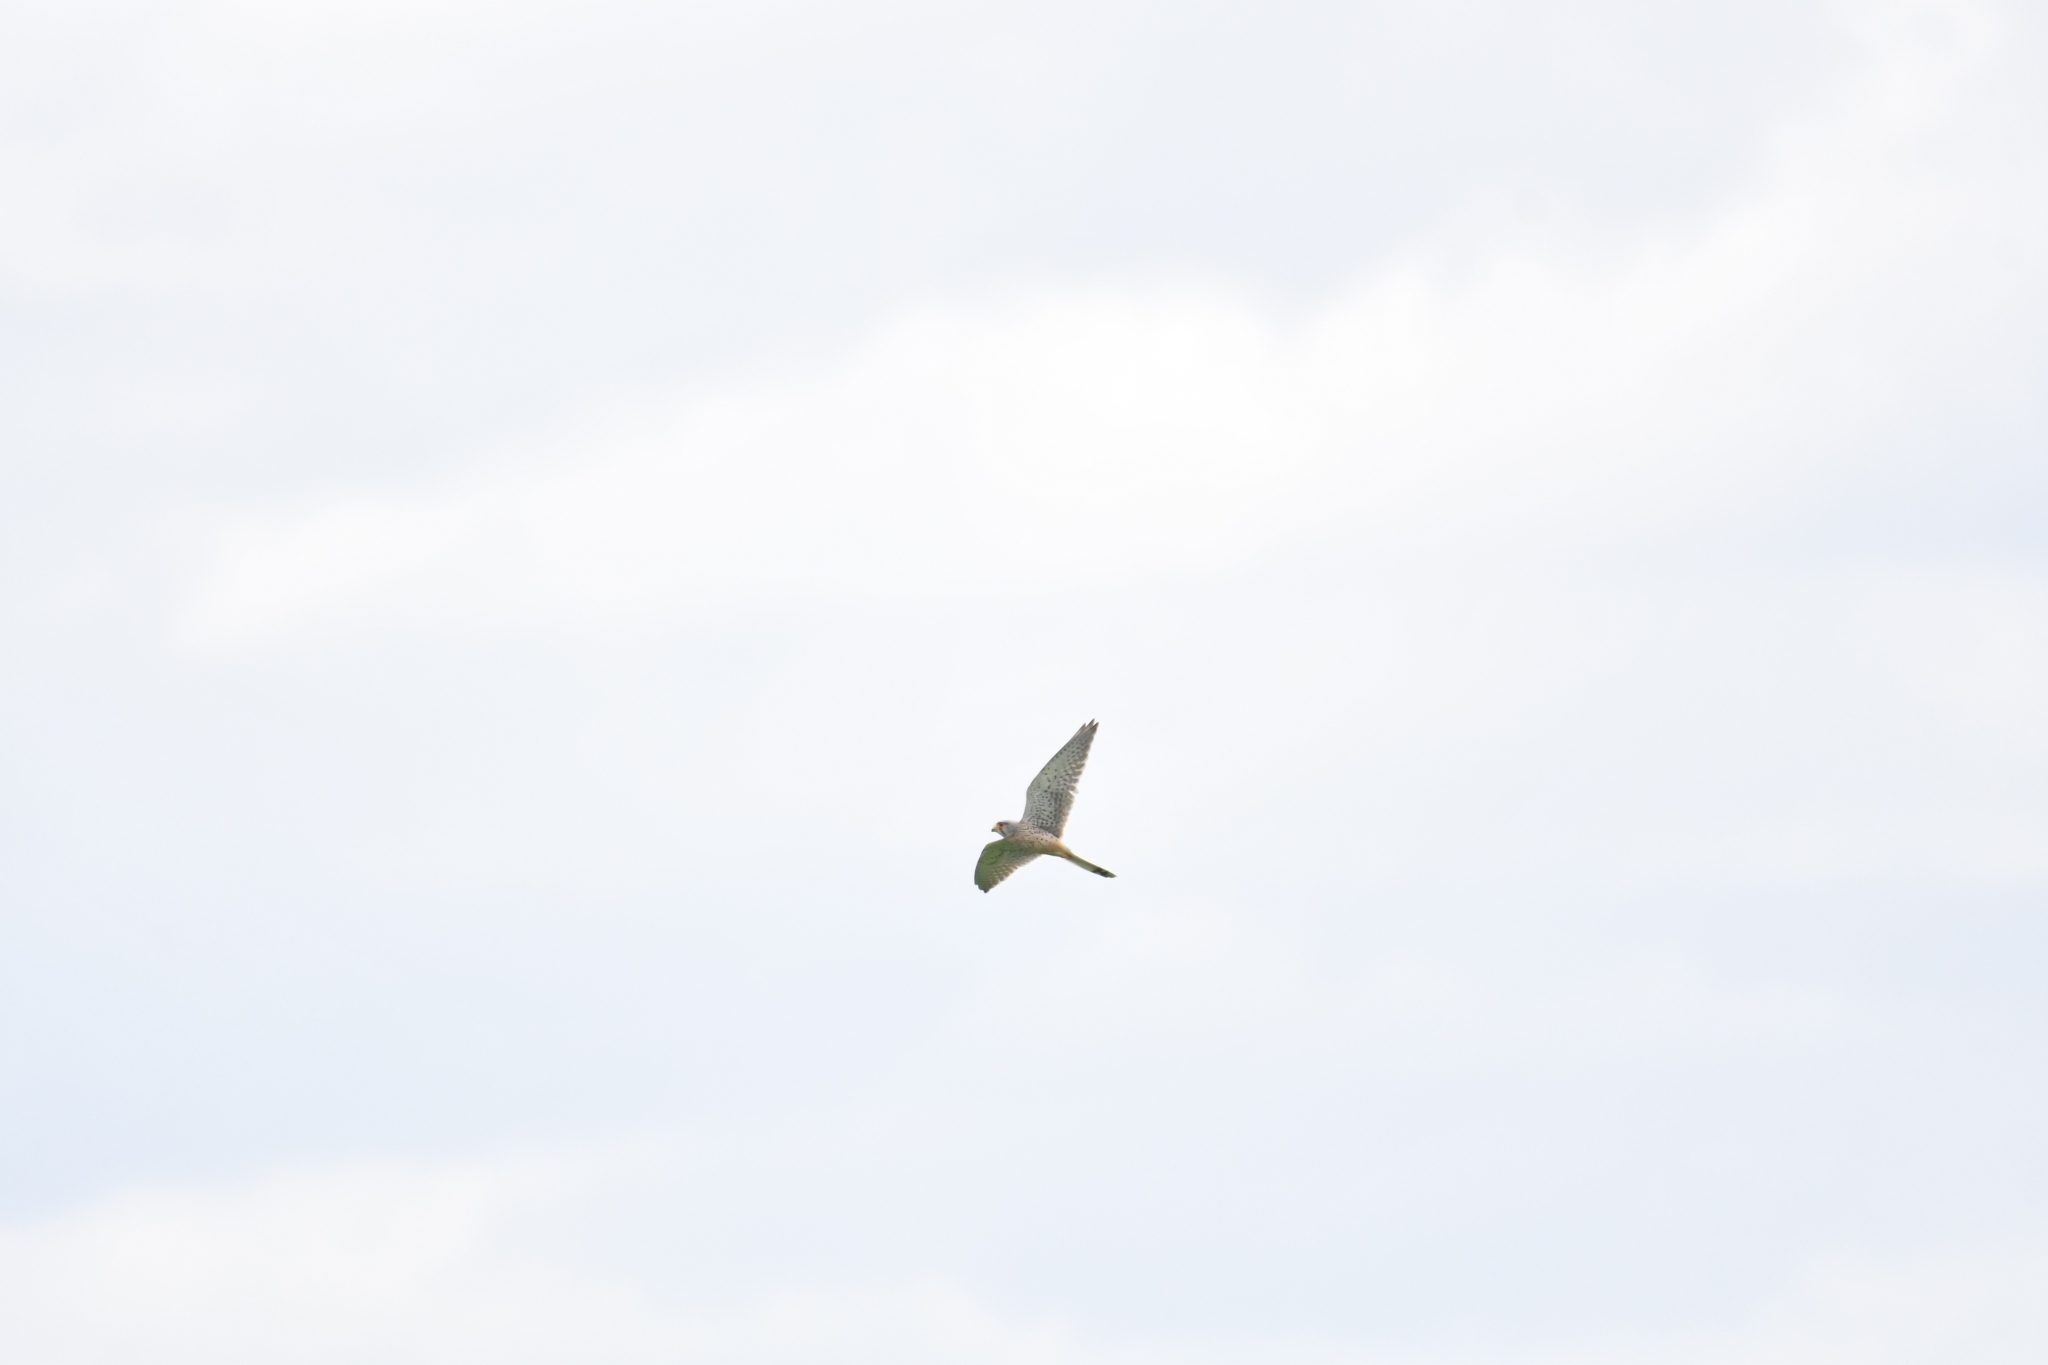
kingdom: Animalia
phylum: Chordata
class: Aves
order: Falconiformes
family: Falconidae
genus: Falco
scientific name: Falco tinnunculus
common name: Common kestrel
